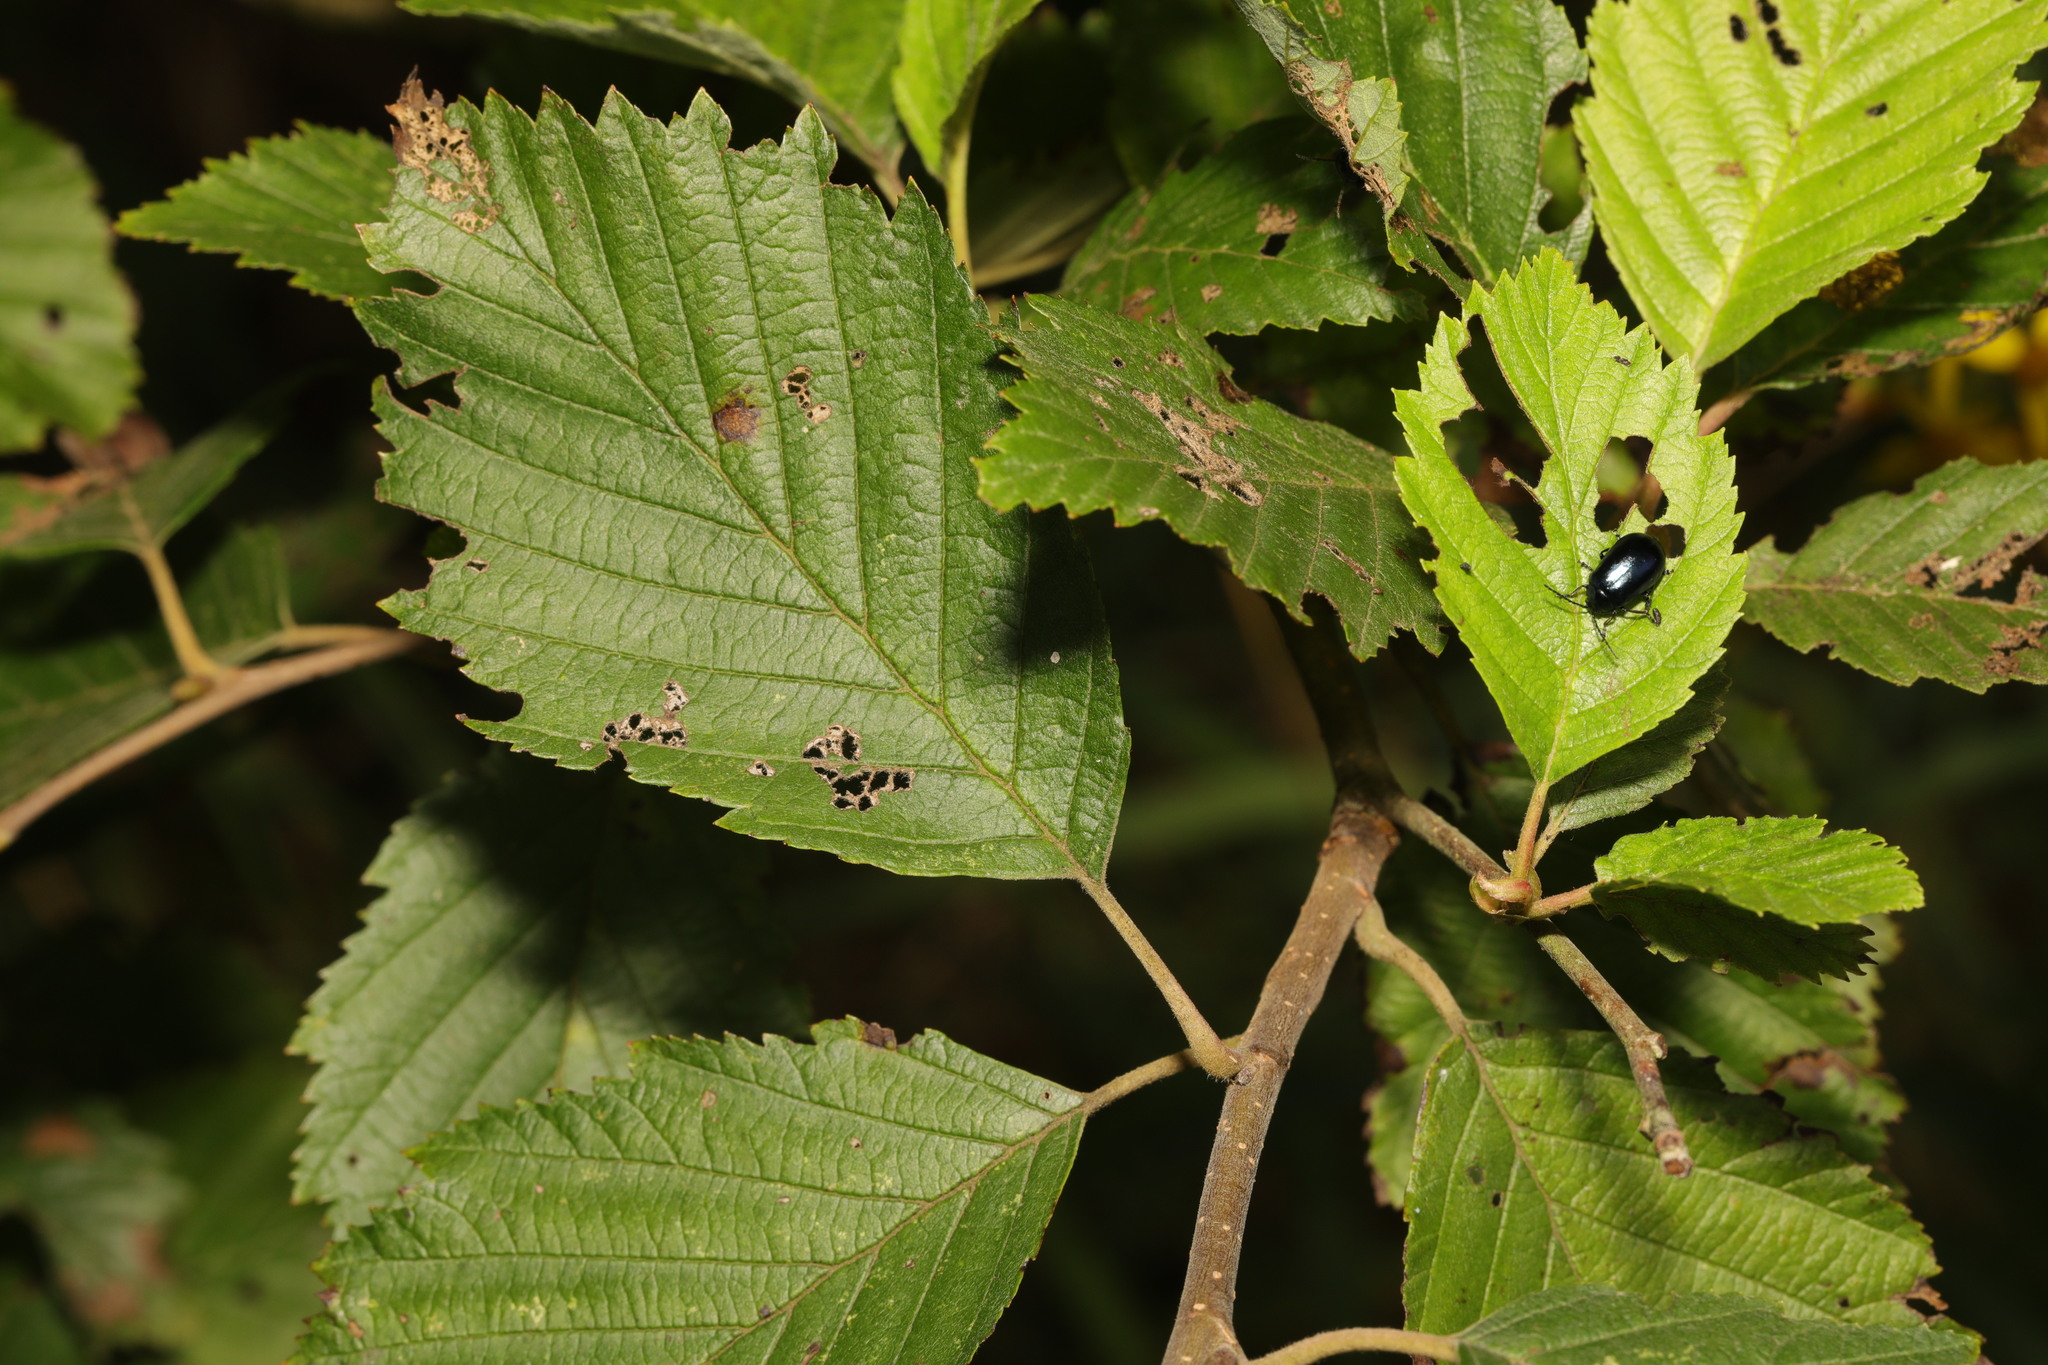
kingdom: Plantae
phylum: Tracheophyta
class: Magnoliopsida
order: Fagales
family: Betulaceae
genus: Alnus
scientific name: Alnus incana
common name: Grey alder
